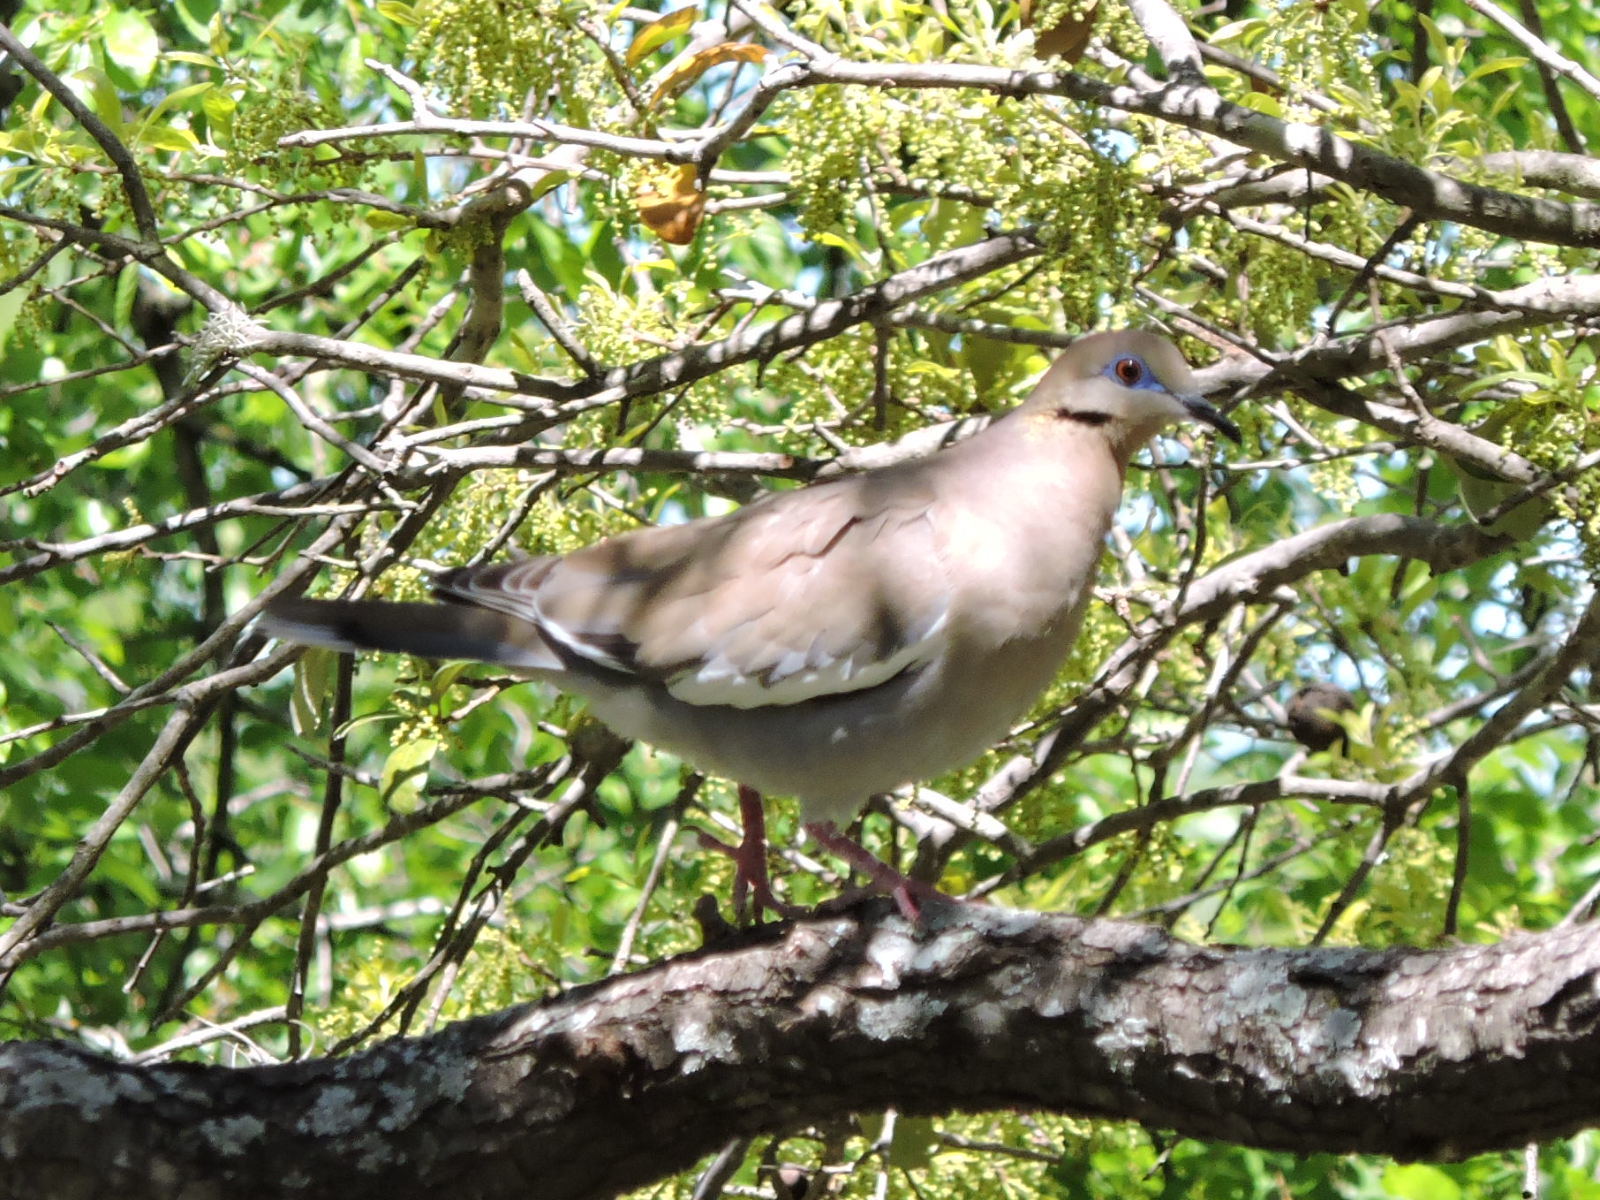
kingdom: Animalia
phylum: Chordata
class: Aves
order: Columbiformes
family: Columbidae
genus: Zenaida
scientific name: Zenaida asiatica
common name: White-winged dove
